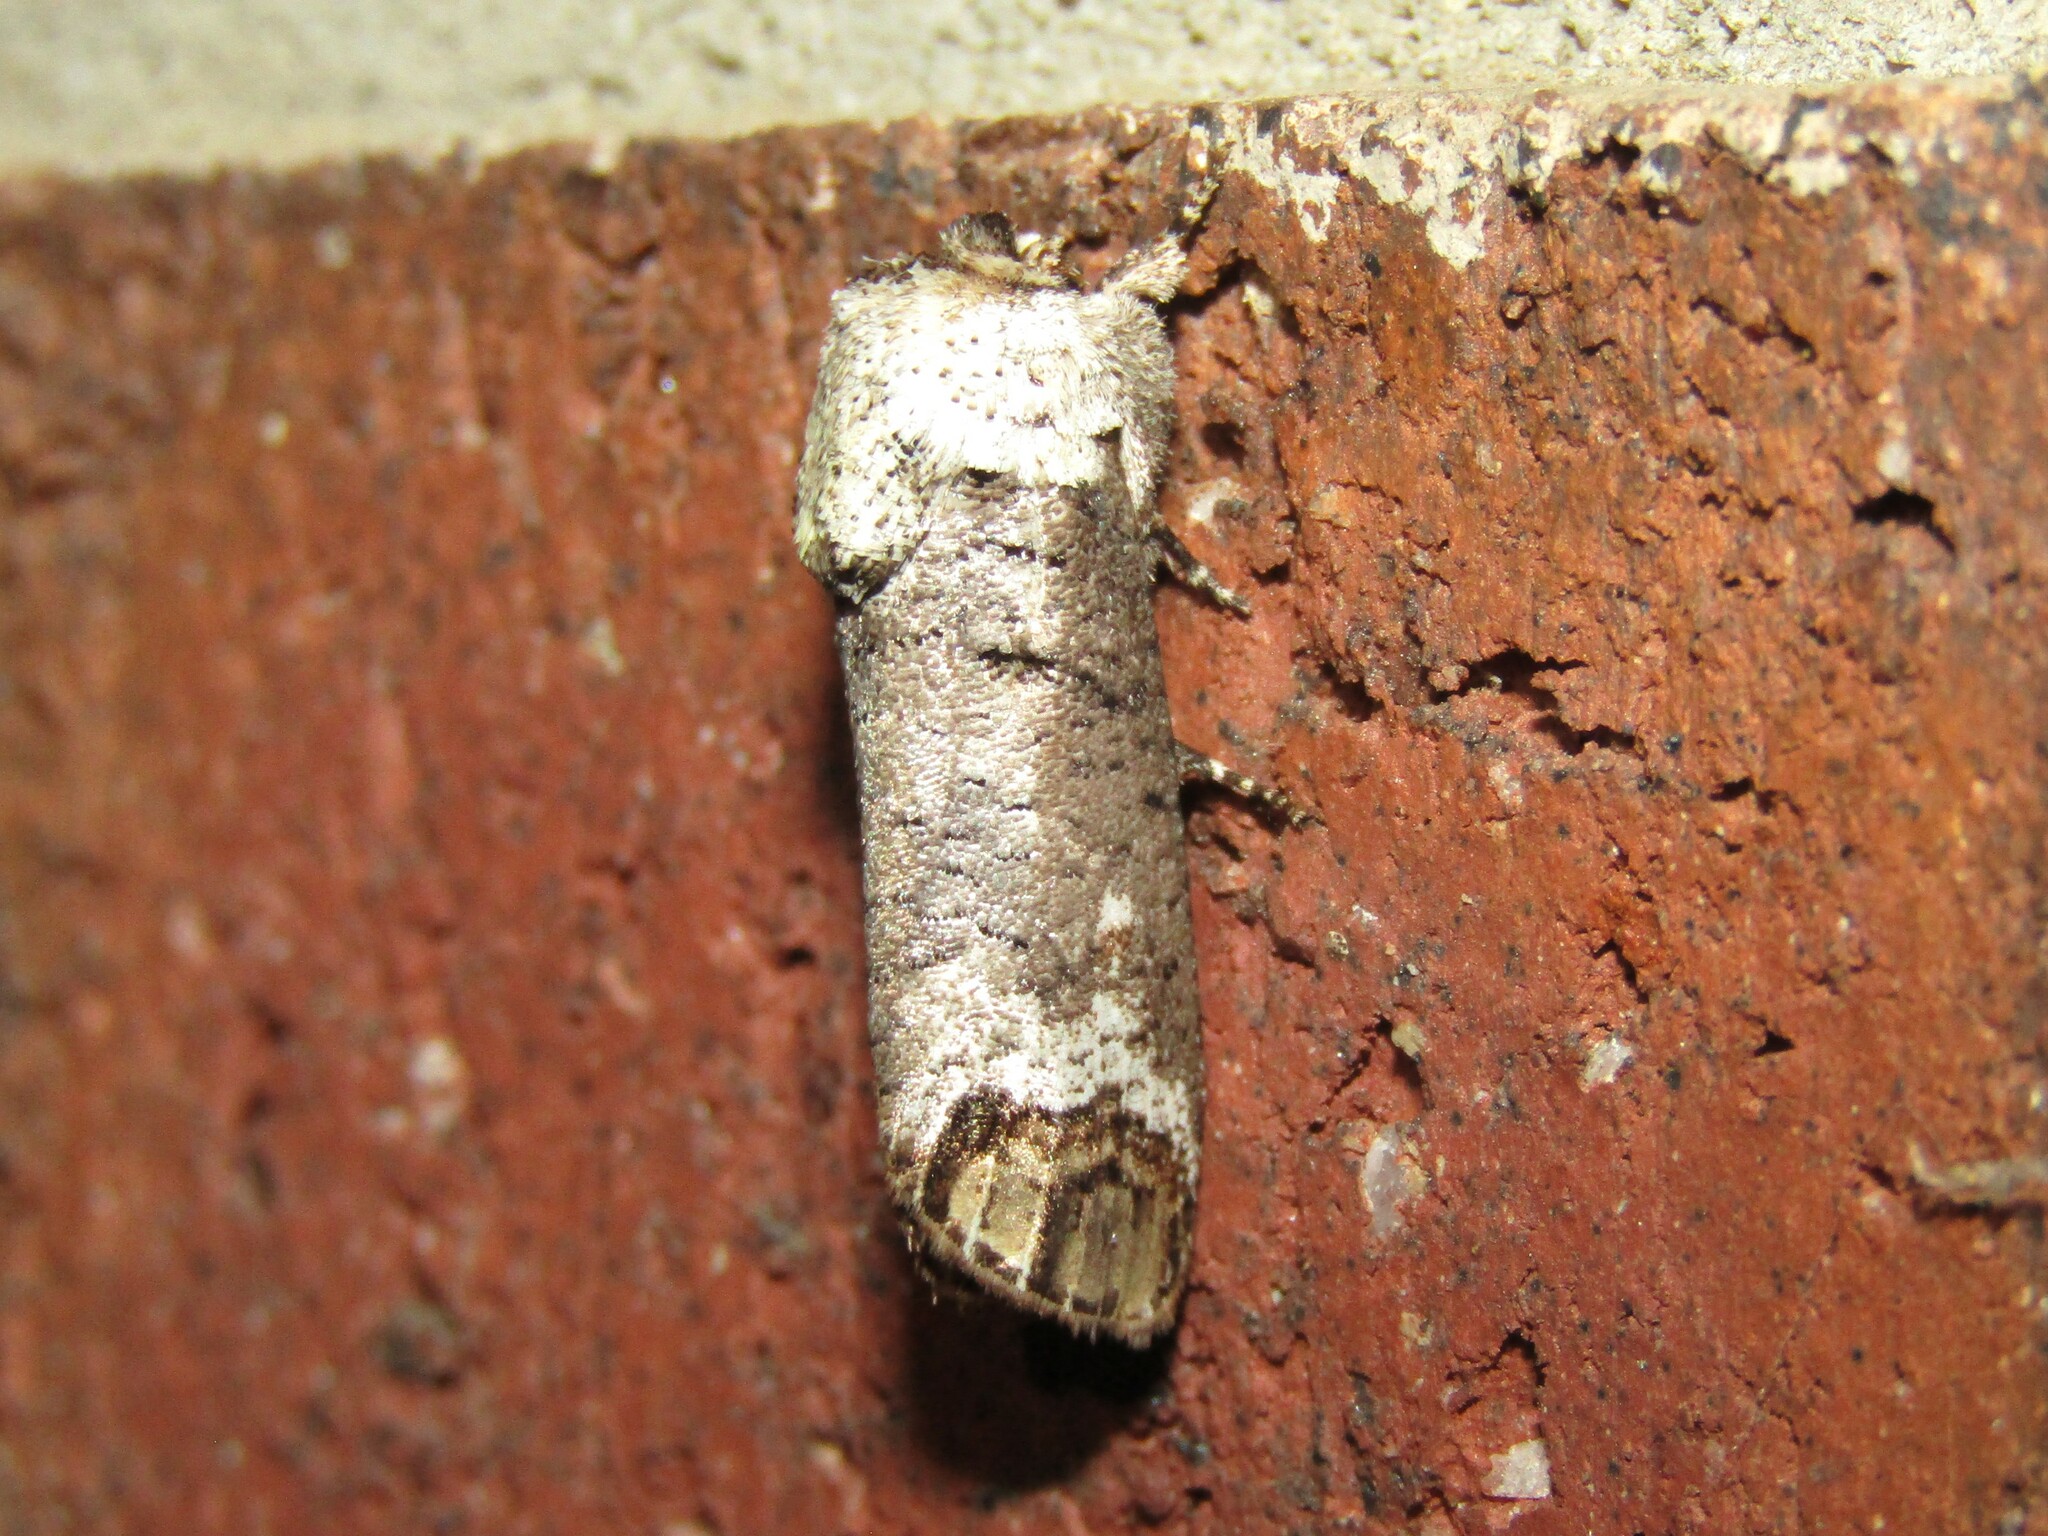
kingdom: Animalia
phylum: Arthropoda
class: Insecta
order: Lepidoptera
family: Cossidae
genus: Cossula
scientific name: Cossula magnifica
